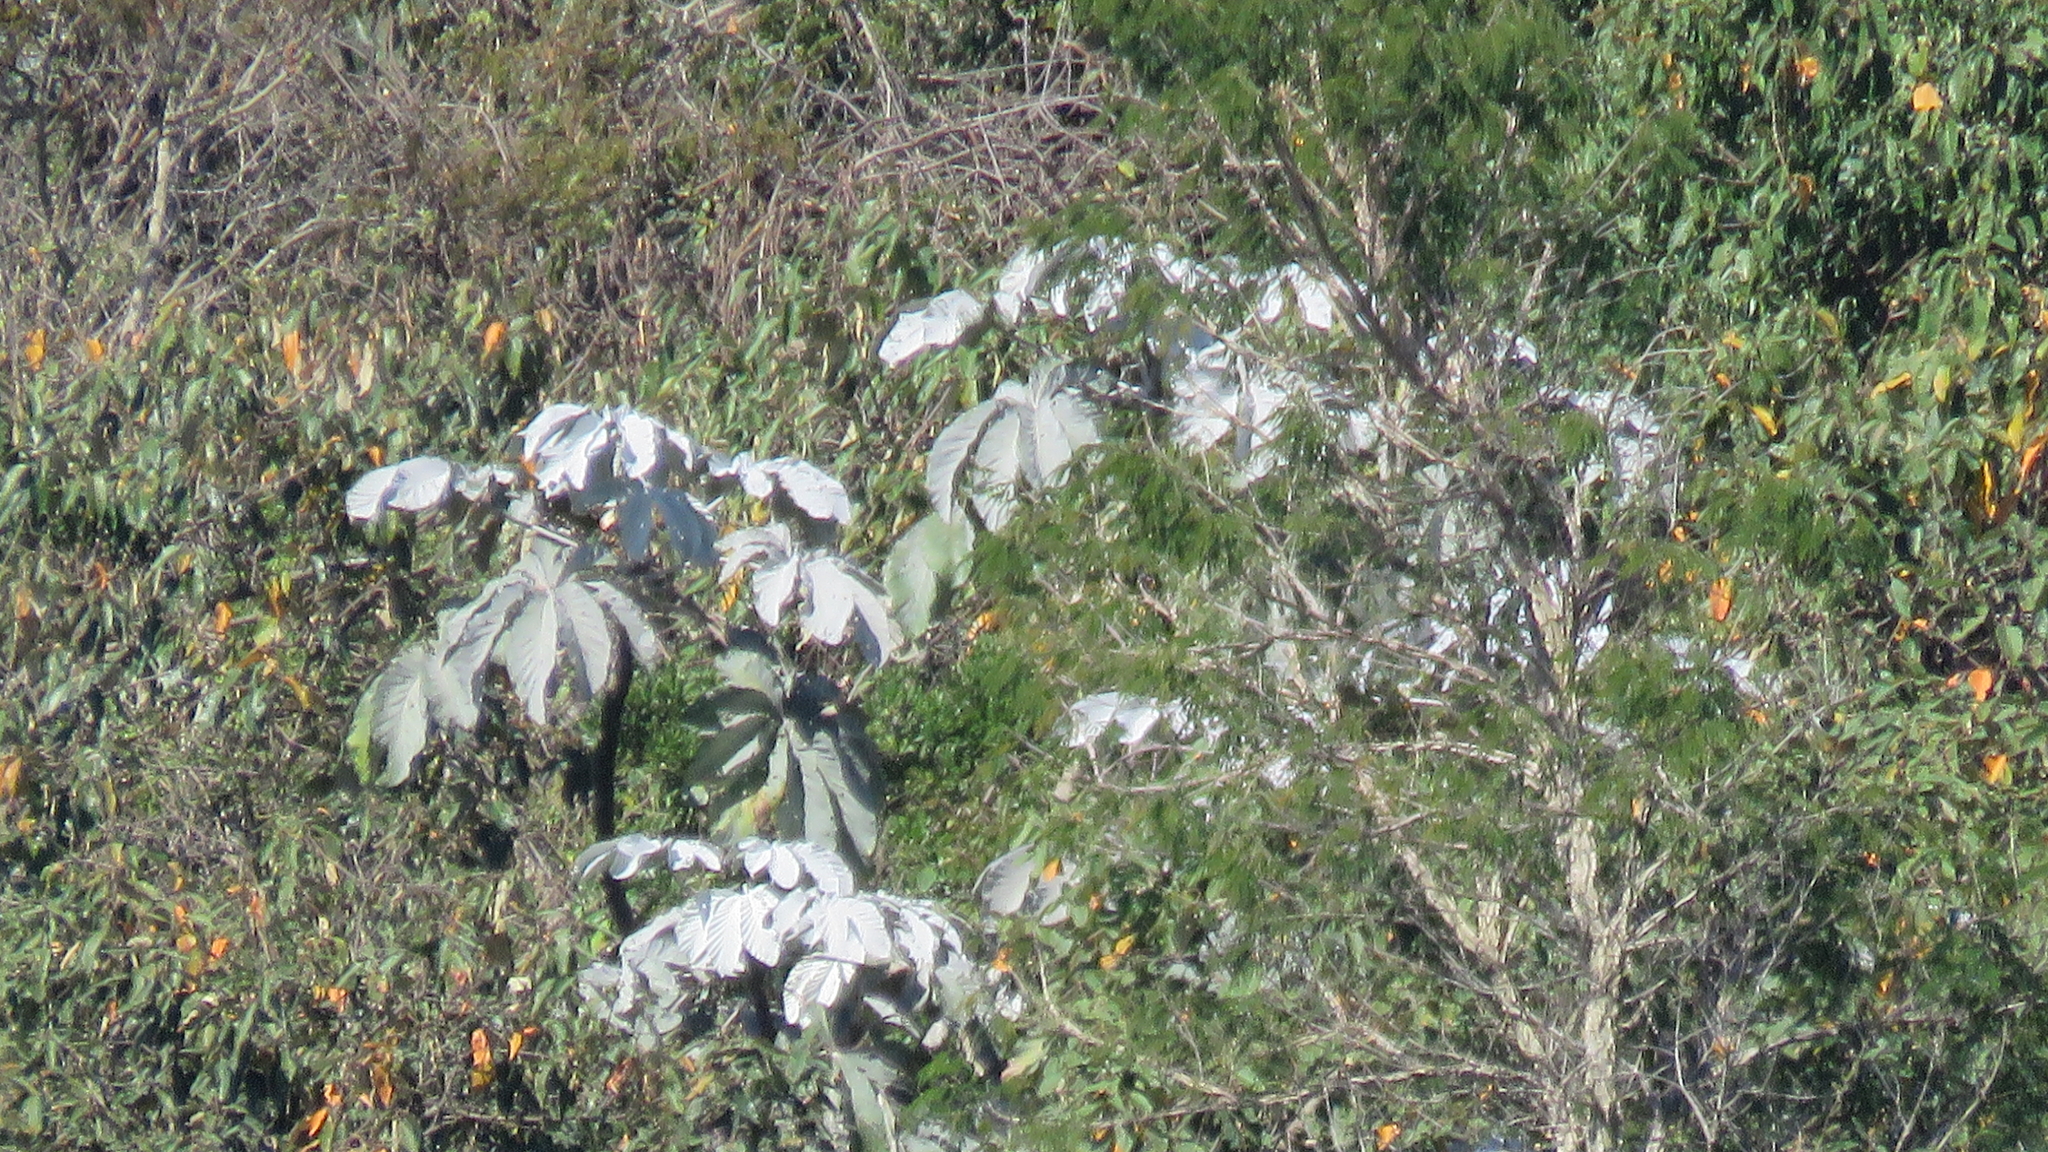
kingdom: Plantae
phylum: Tracheophyta
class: Magnoliopsida
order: Rosales
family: Urticaceae
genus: Cecropia
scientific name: Cecropia hololeuca
